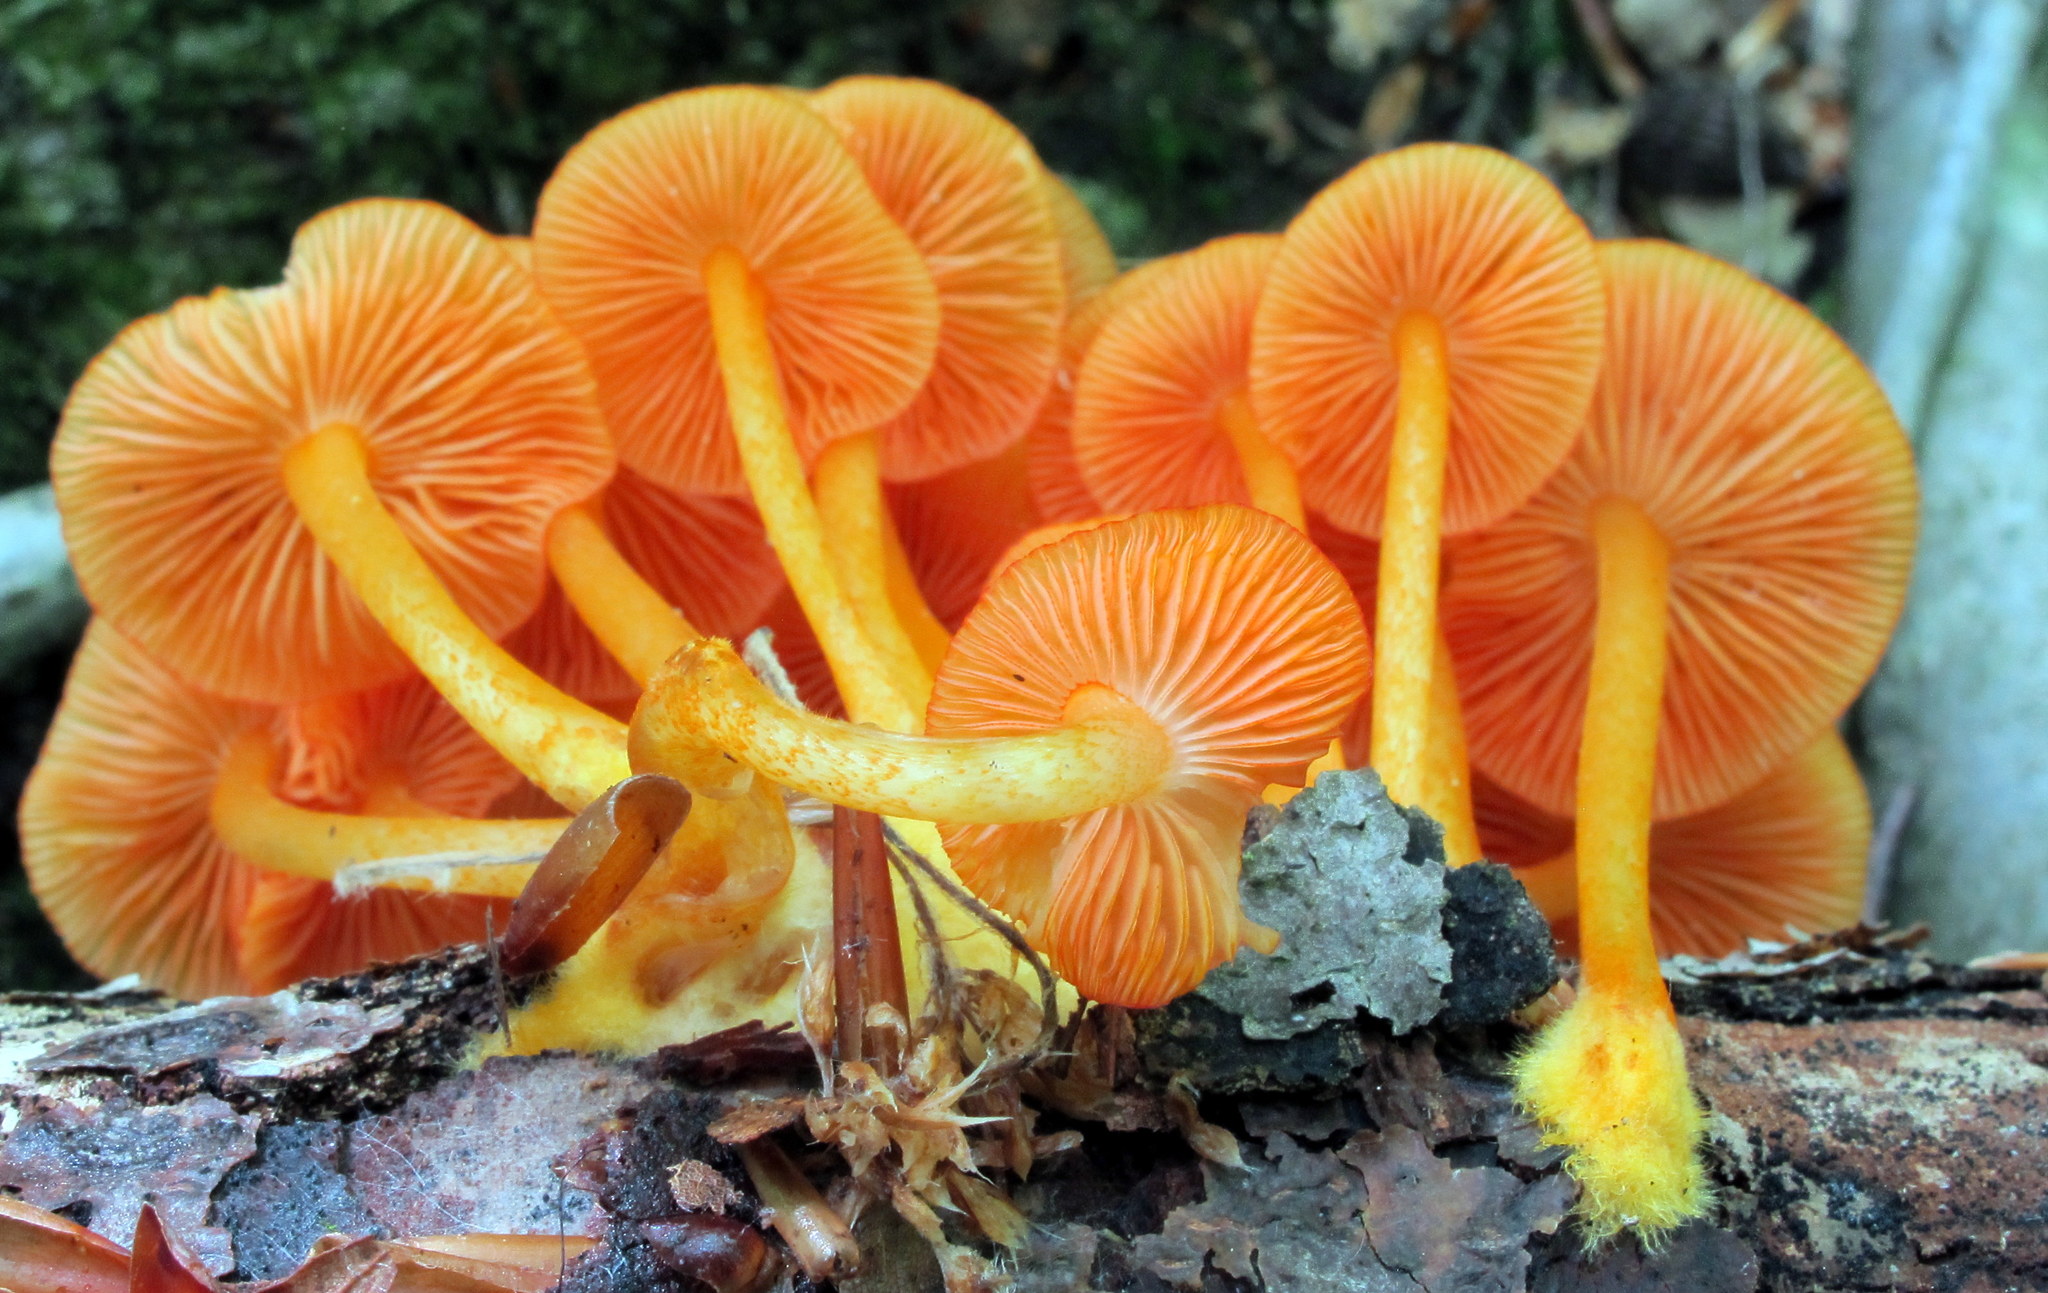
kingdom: Fungi
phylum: Basidiomycota
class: Agaricomycetes
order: Agaricales
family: Mycenaceae
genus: Mycena
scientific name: Mycena leaiana
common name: Orange mycena
